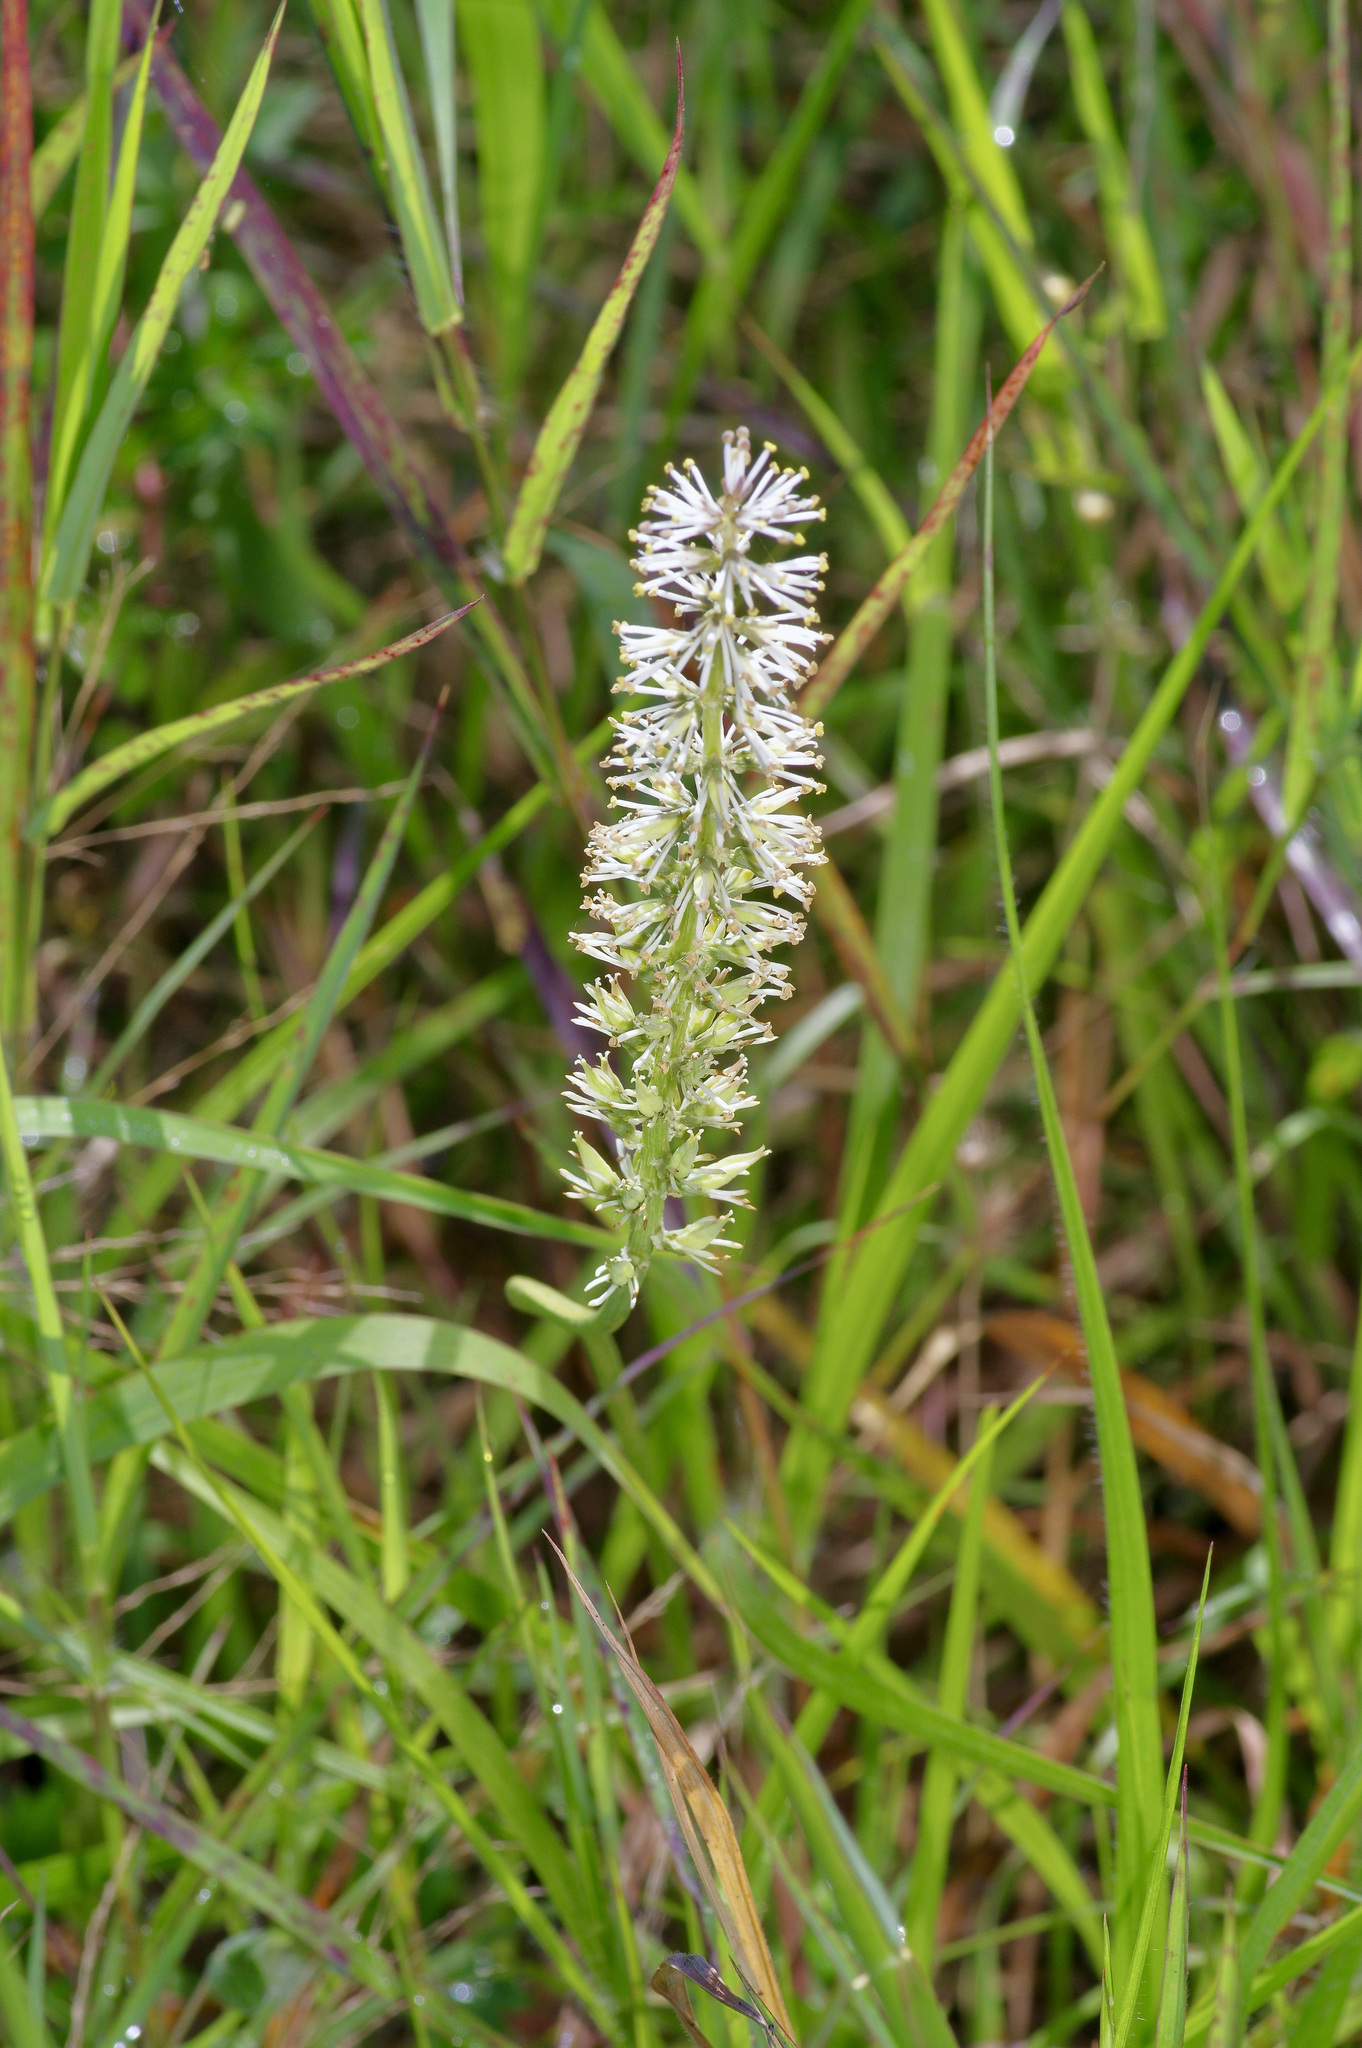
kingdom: Plantae
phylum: Tracheophyta
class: Liliopsida
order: Liliales
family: Melanthiaceae
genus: Schoenocaulon
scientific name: Schoenocaulon ghiesbreghtii
